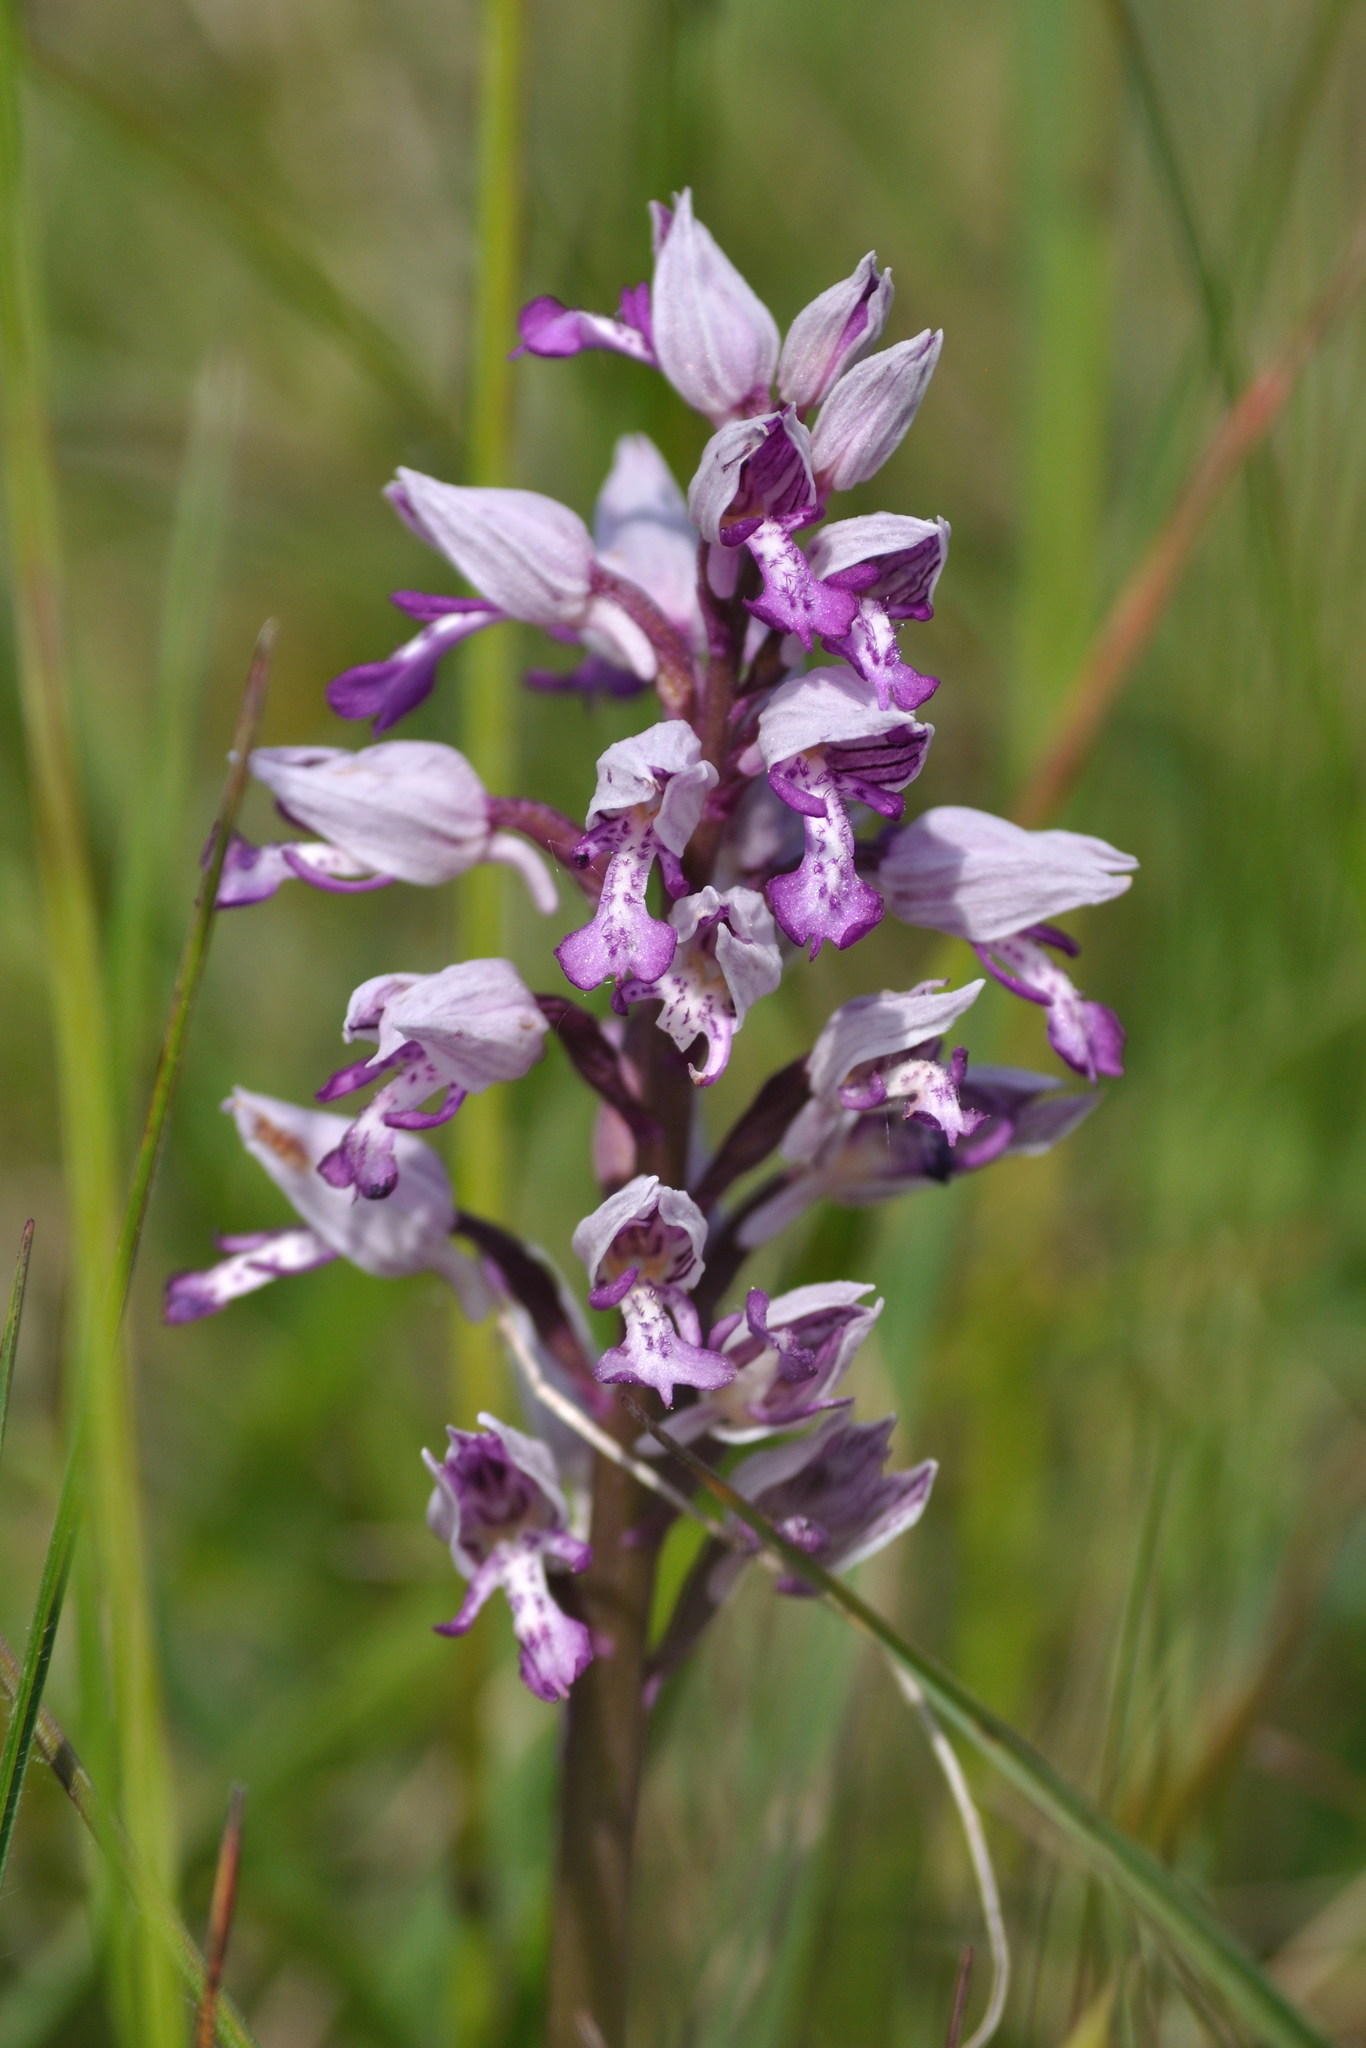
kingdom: Plantae
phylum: Tracheophyta
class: Liliopsida
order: Asparagales
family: Orchidaceae
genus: Orchis
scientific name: Orchis militaris
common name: Military orchid
